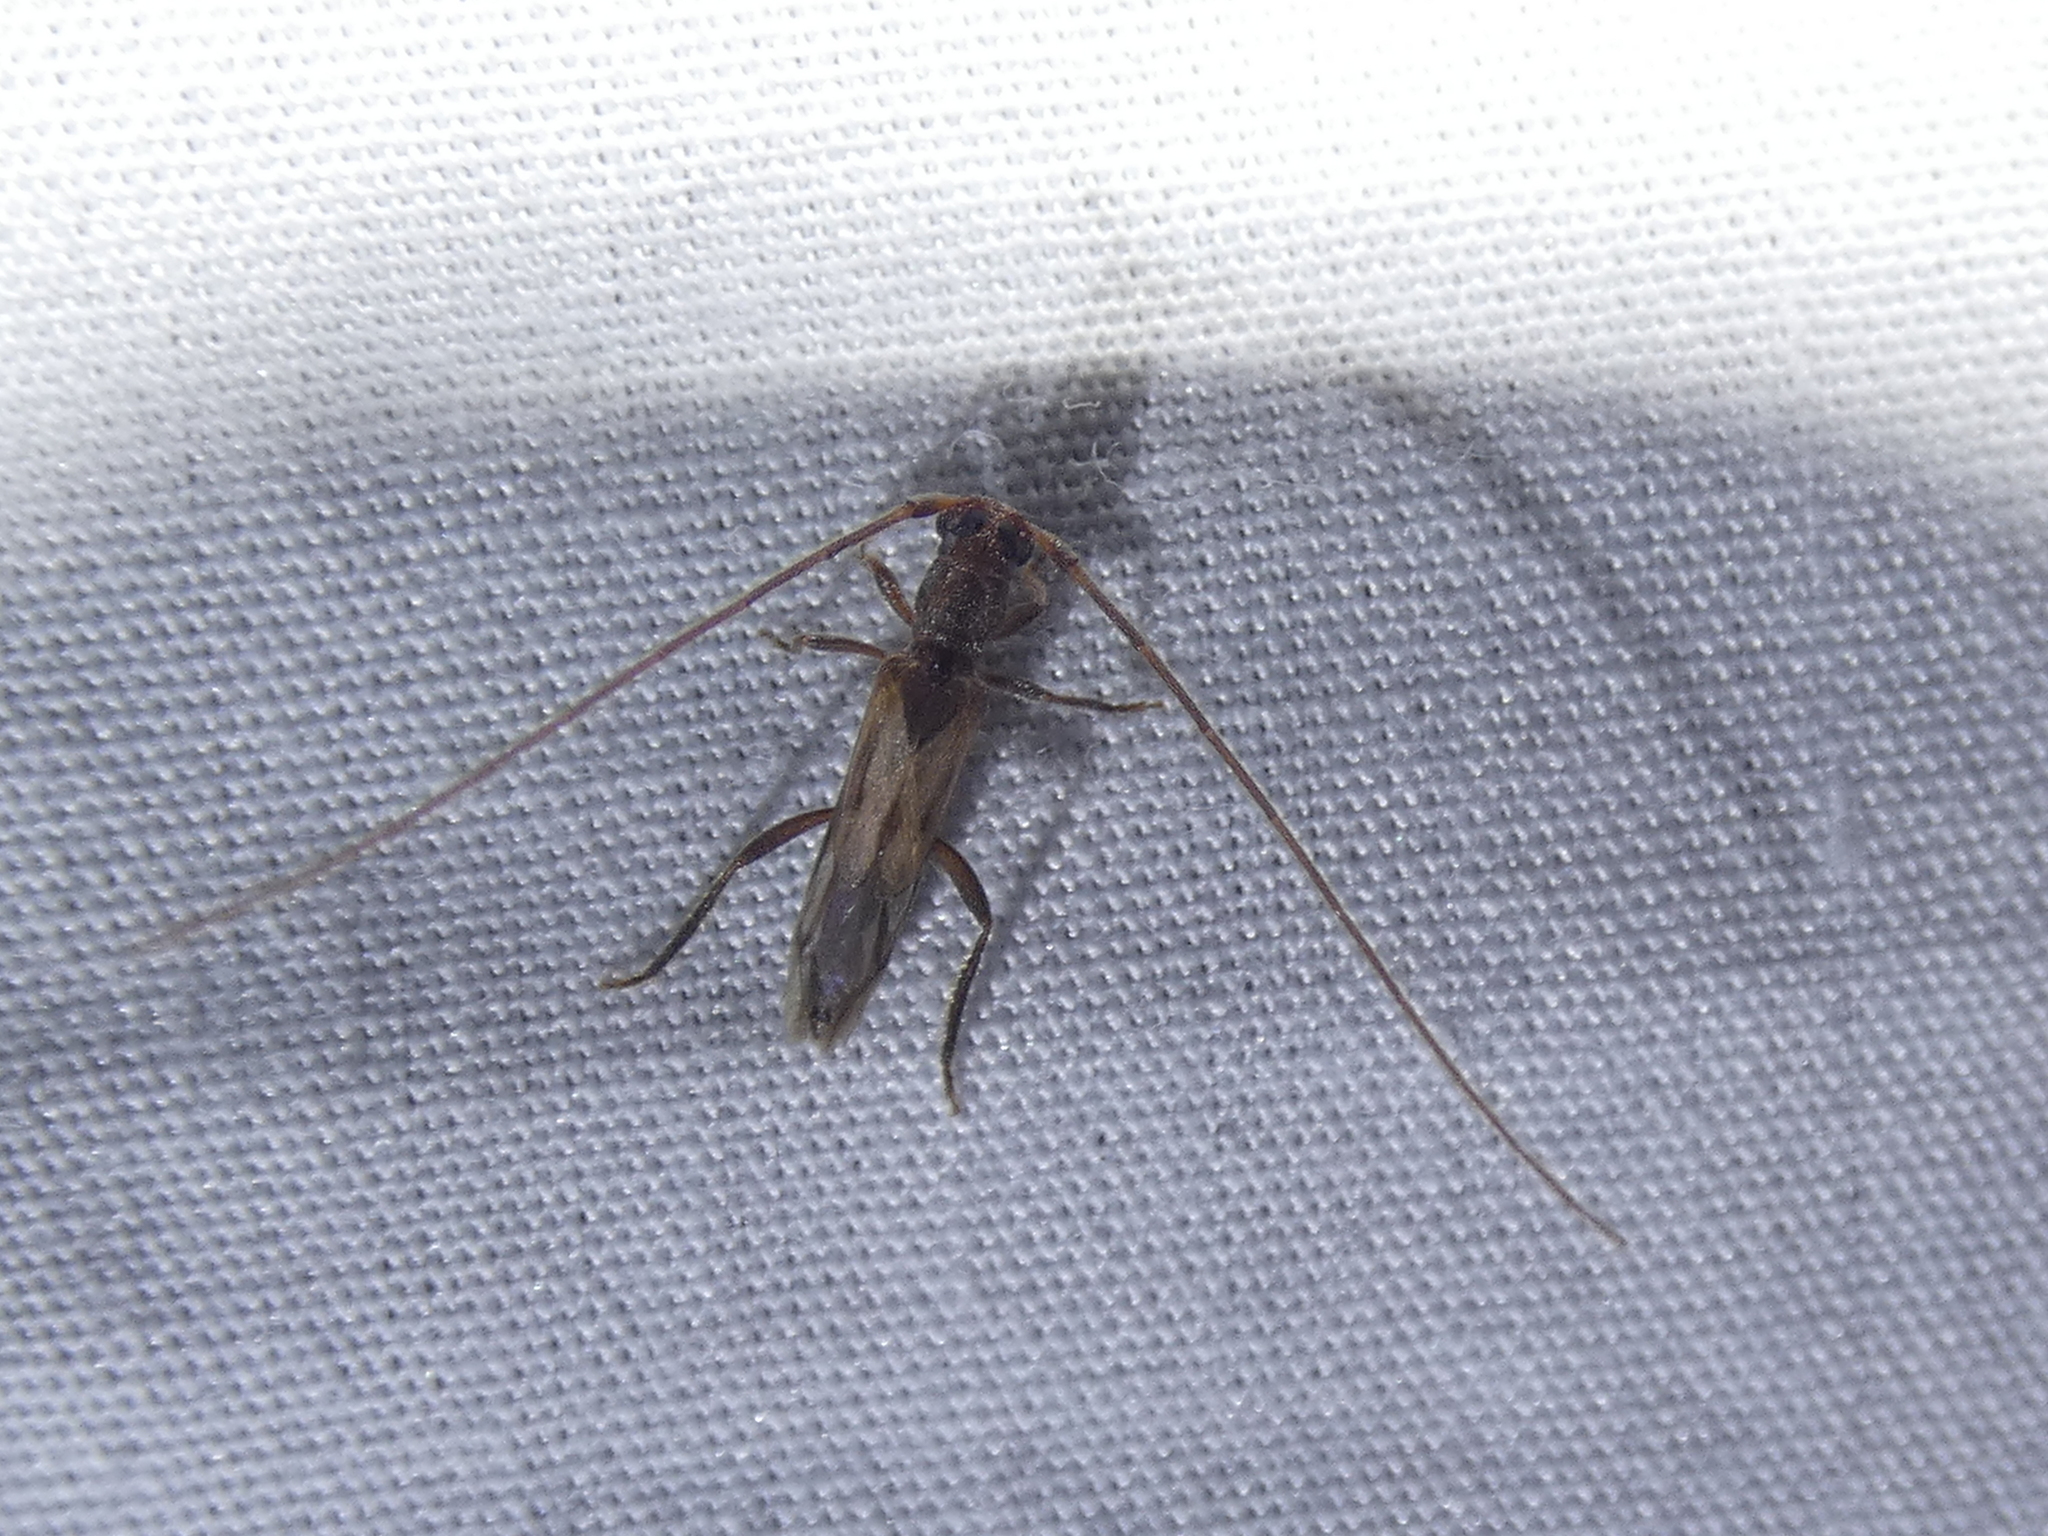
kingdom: Animalia
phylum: Arthropoda
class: Insecta
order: Coleoptera
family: Cerambycidae
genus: Methia
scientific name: Methia necydalea
